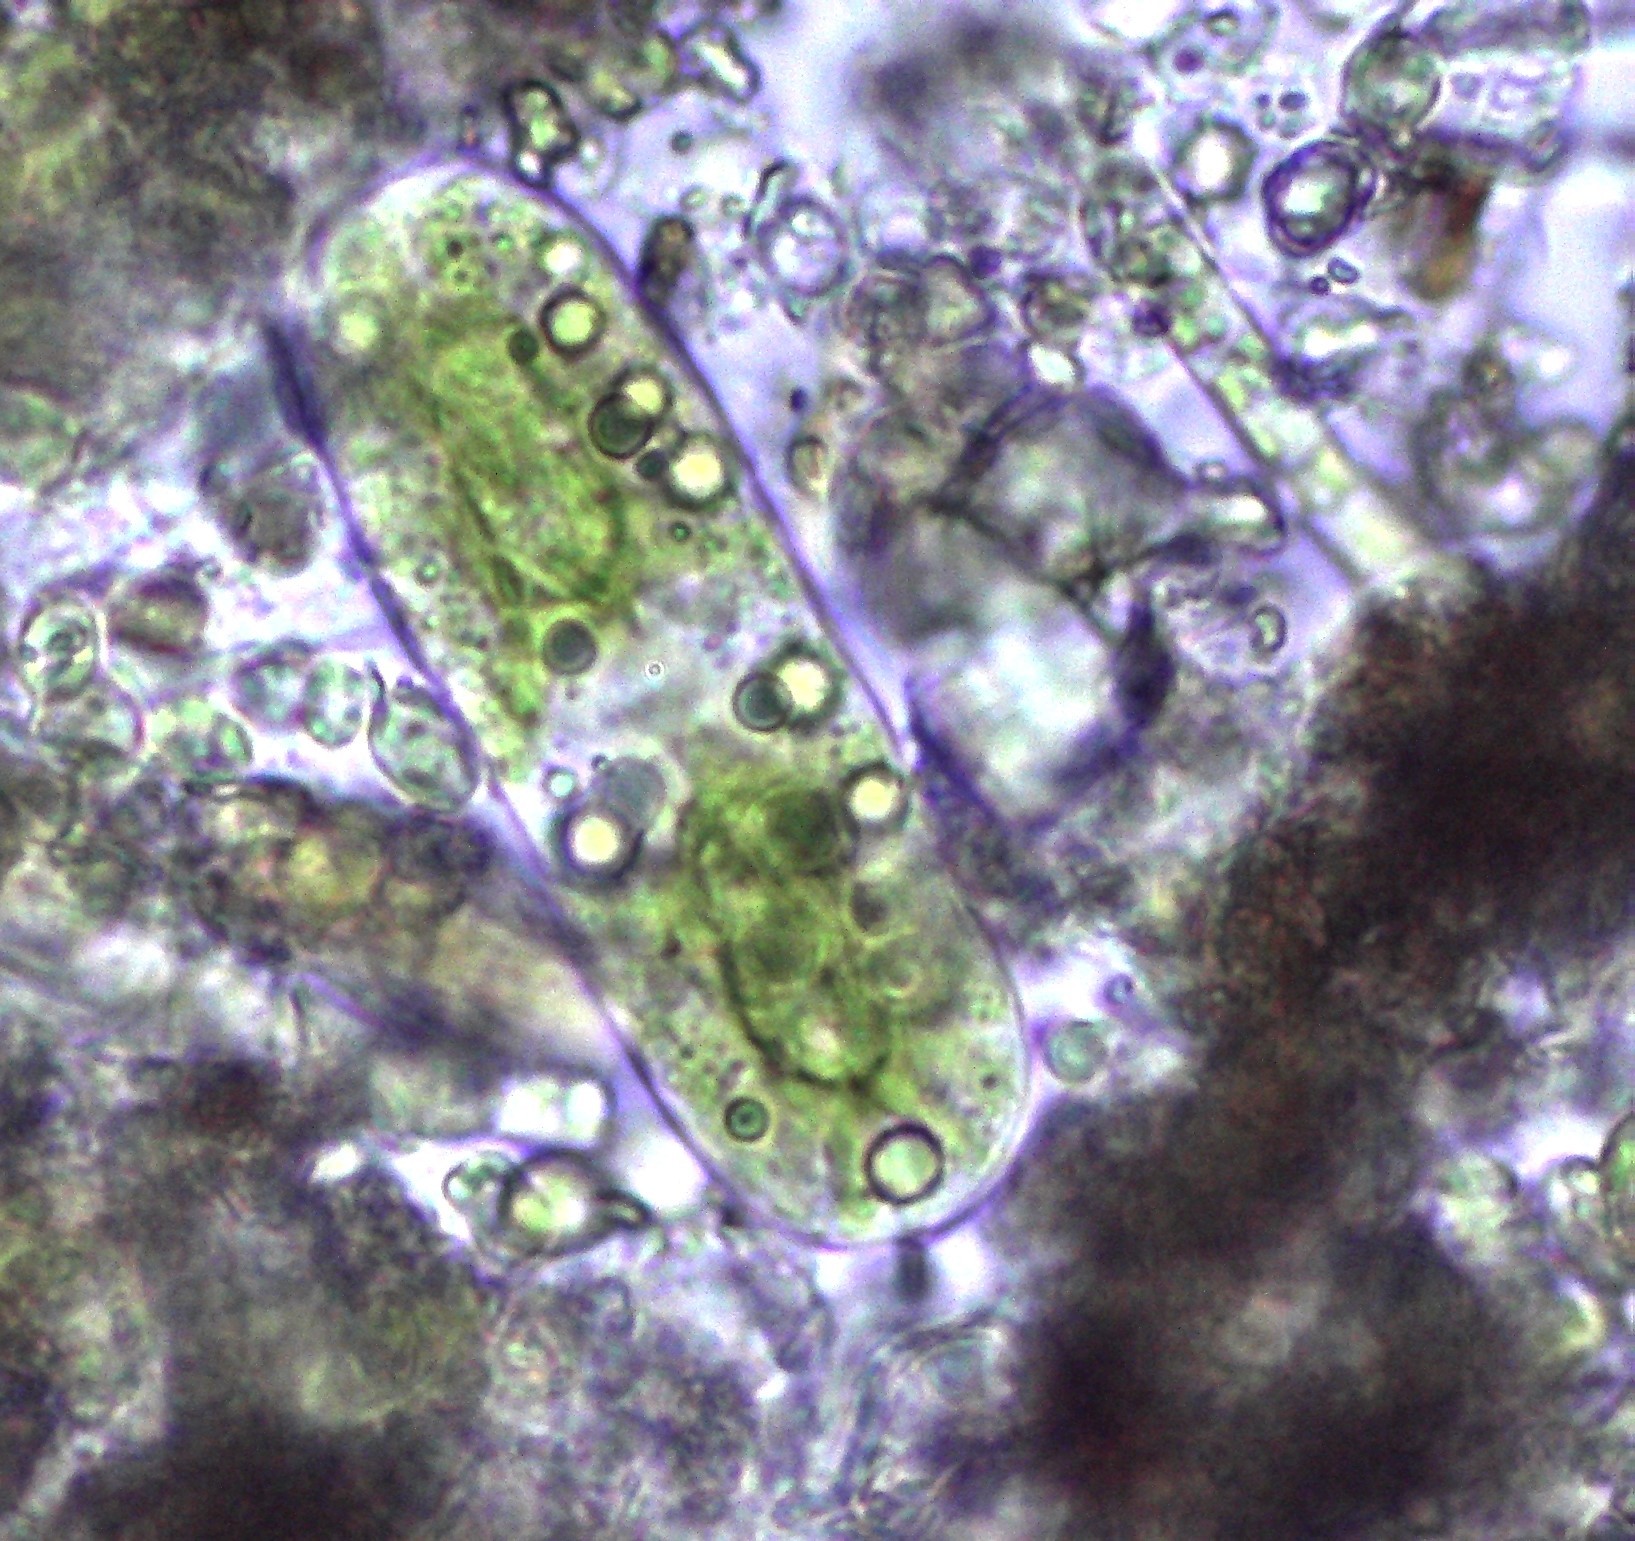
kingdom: Plantae
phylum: Charophyta
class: Zygnematophyceae
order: Zygnematales
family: Mesotaeniaceae
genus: Cylindrocystis
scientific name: Cylindrocystis brebissonii
